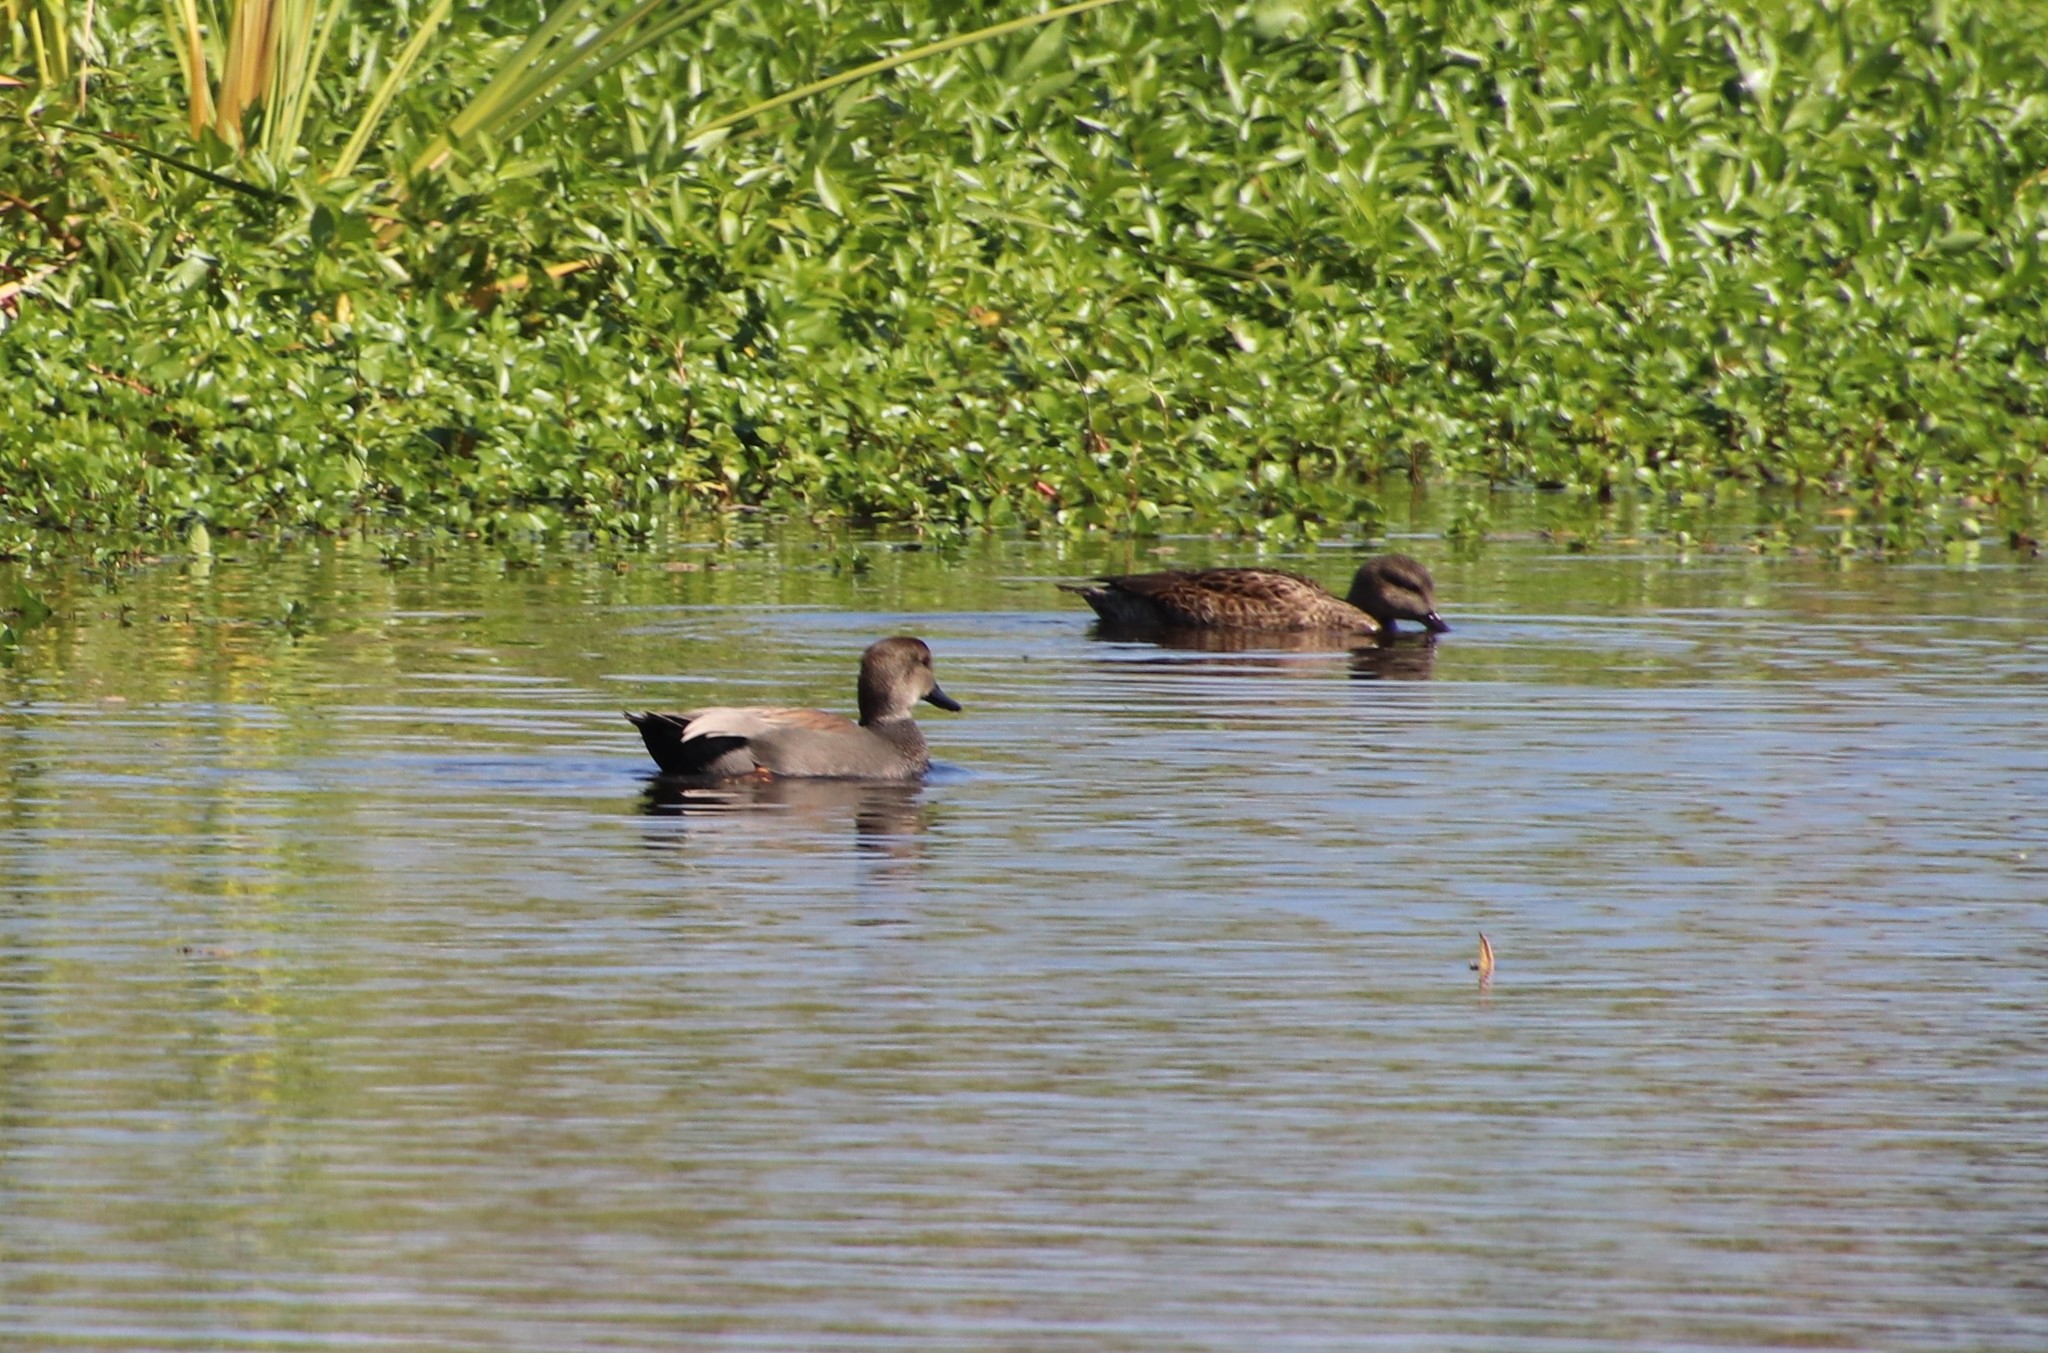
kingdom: Animalia
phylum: Chordata
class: Aves
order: Anseriformes
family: Anatidae
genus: Mareca
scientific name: Mareca strepera
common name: Gadwall
